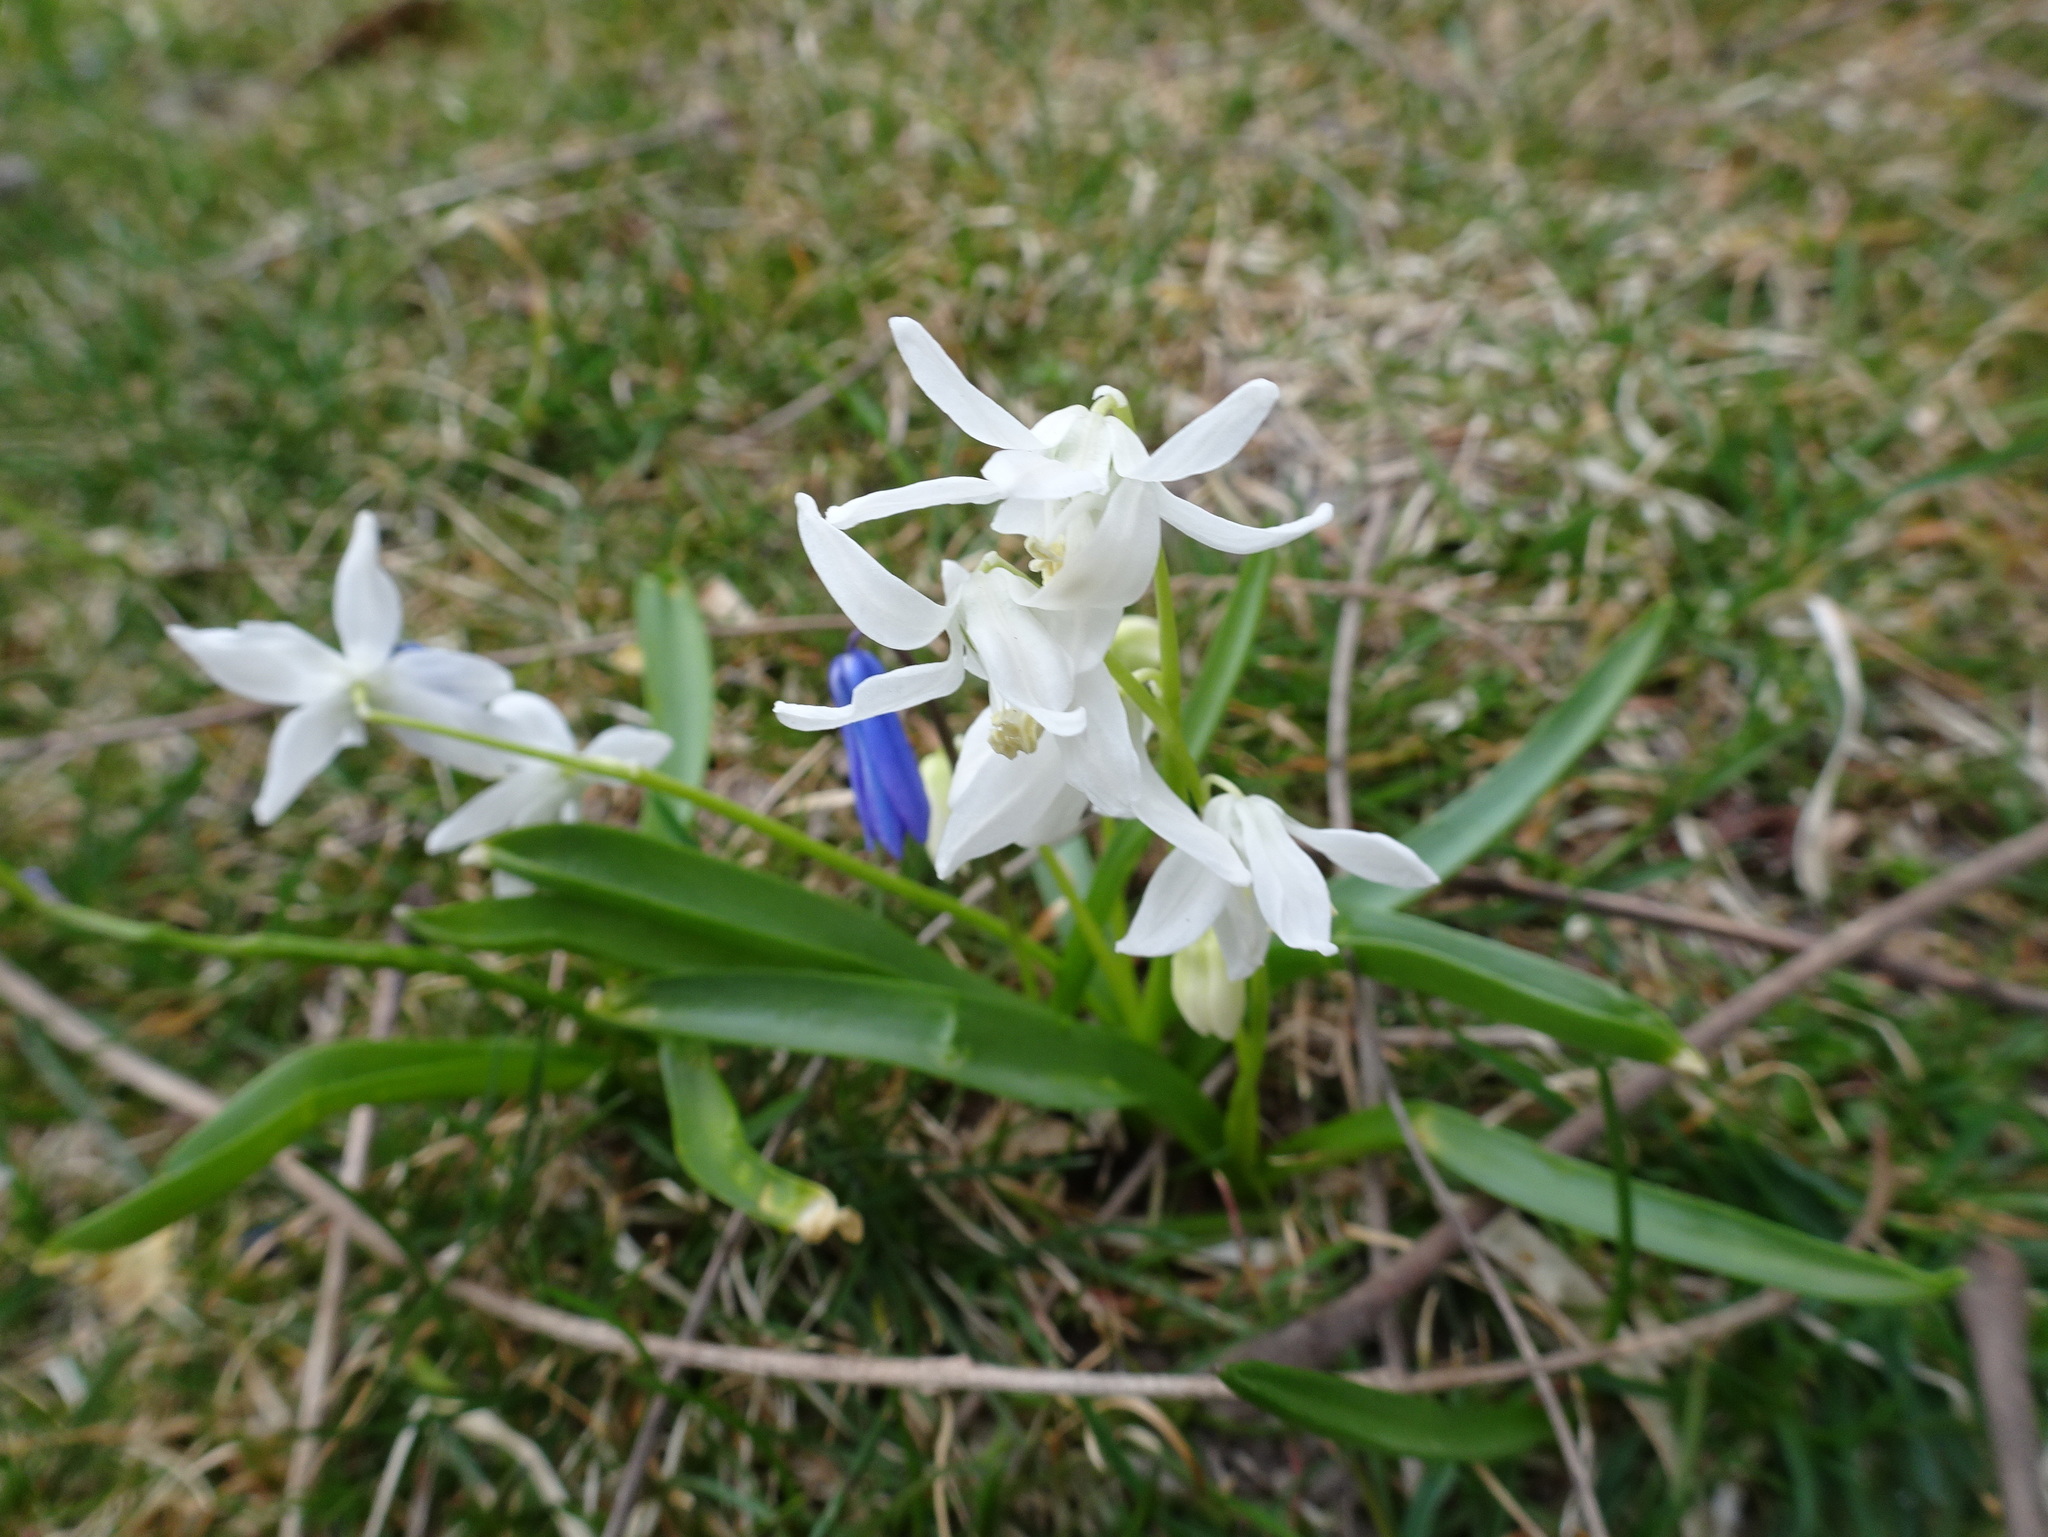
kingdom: Plantae
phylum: Tracheophyta
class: Liliopsida
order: Asparagales
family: Asparagaceae
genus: Scilla
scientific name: Scilla siberica
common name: Siberian squill
